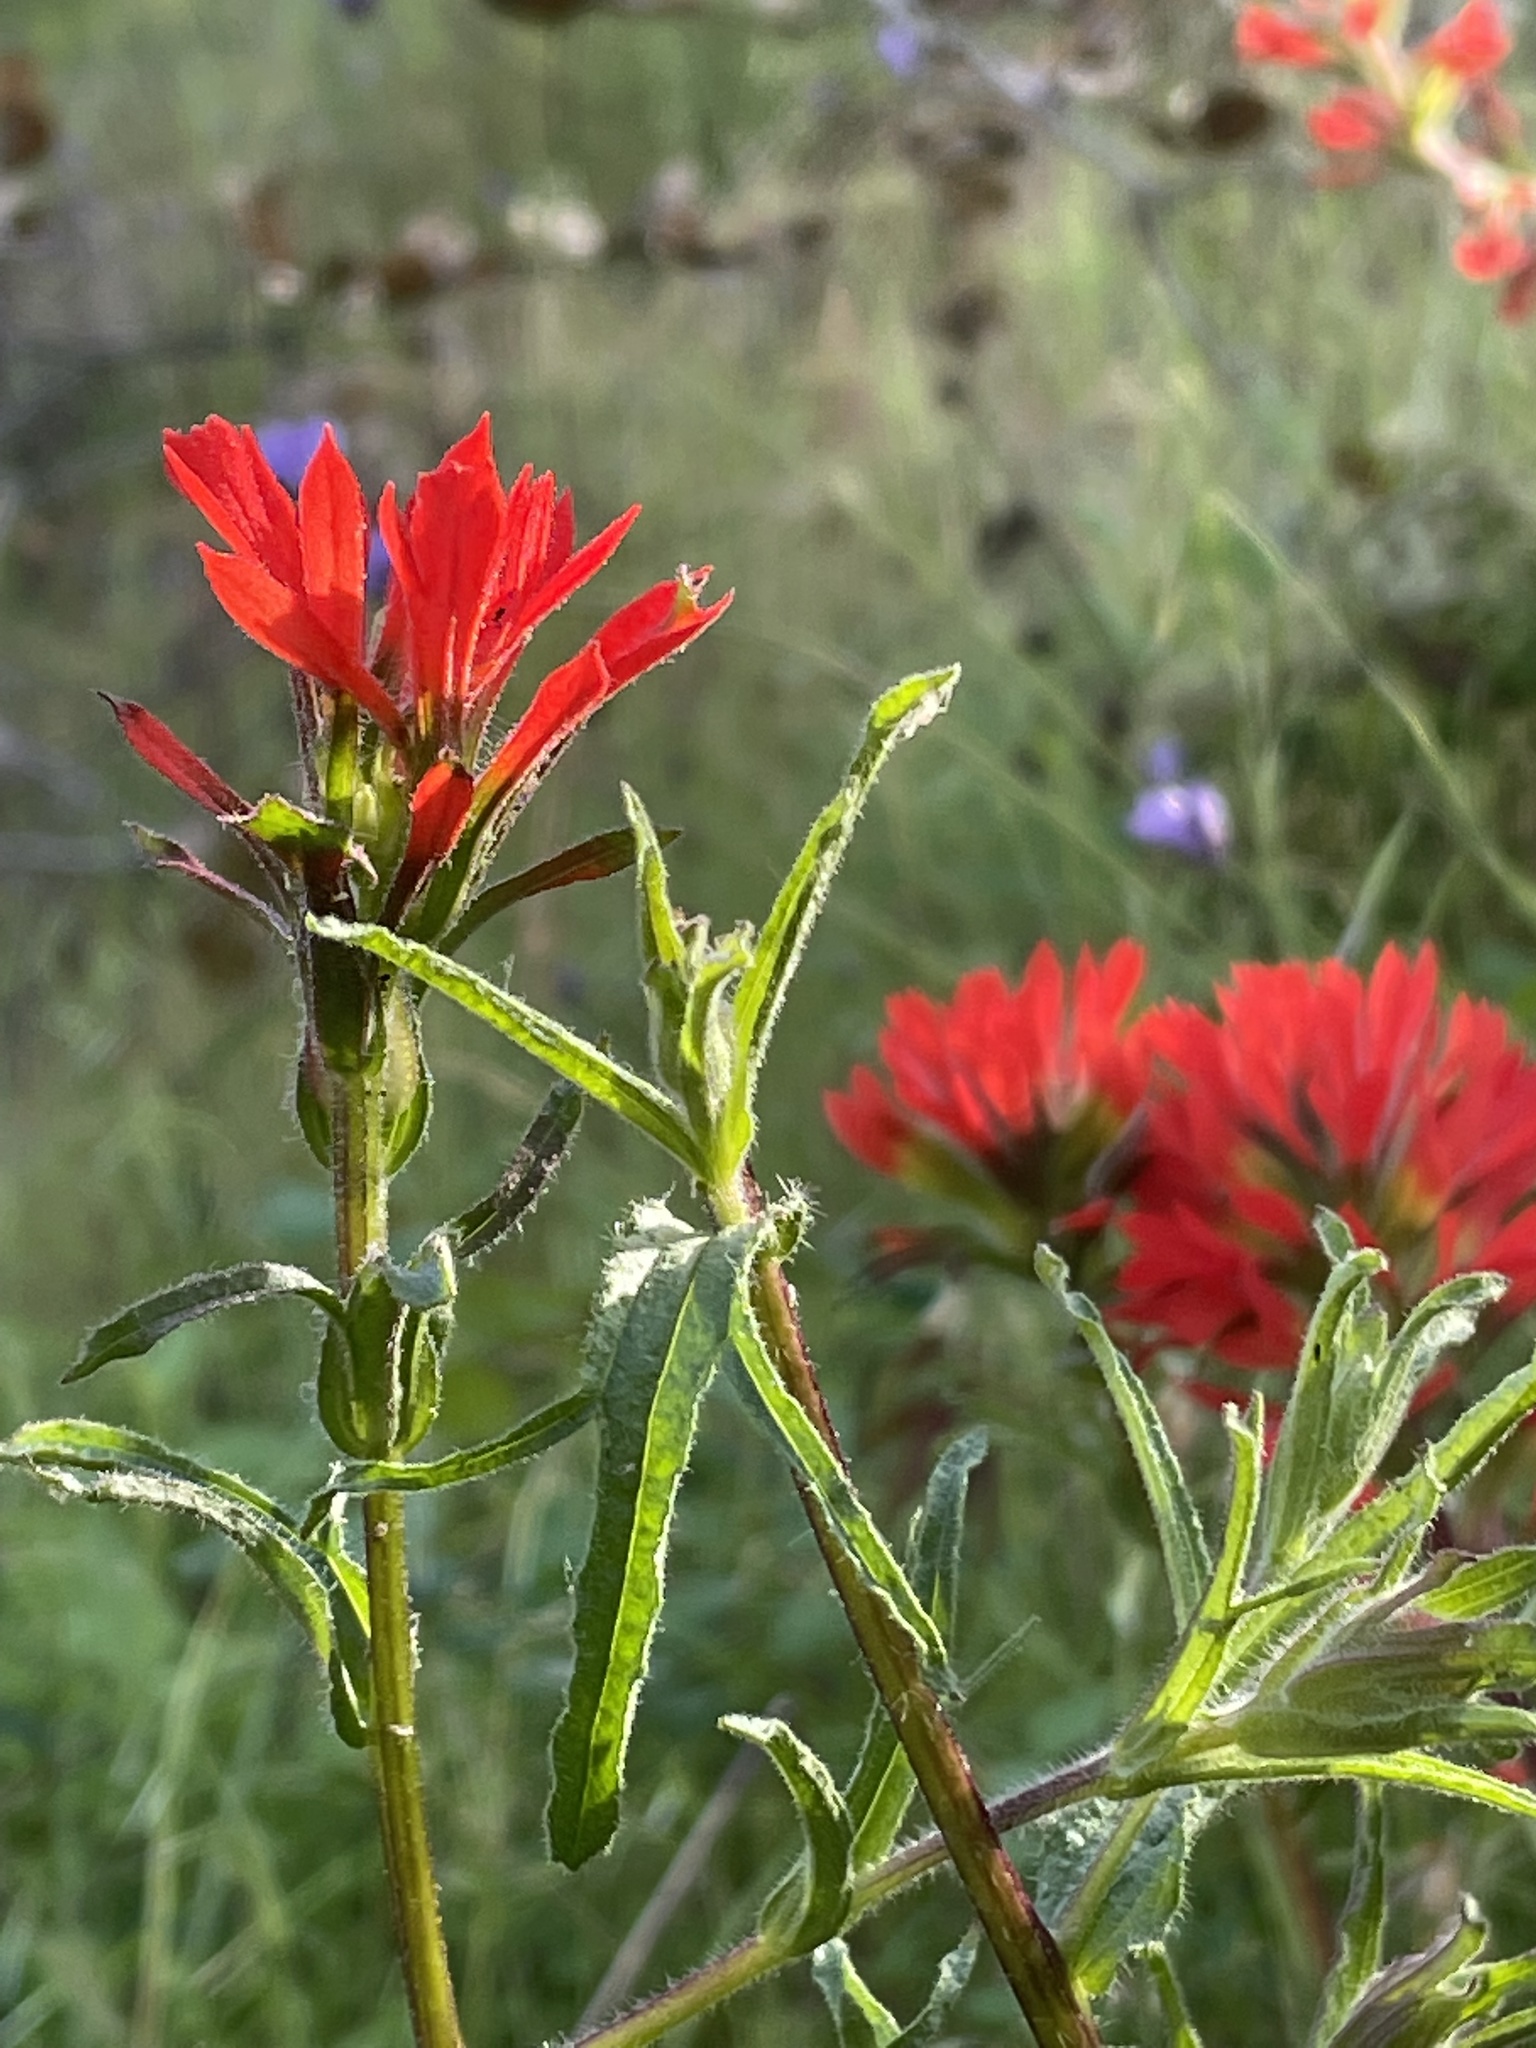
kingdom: Plantae
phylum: Tracheophyta
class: Magnoliopsida
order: Lamiales
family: Orobanchaceae
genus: Castilleja
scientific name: Castilleja affinis
